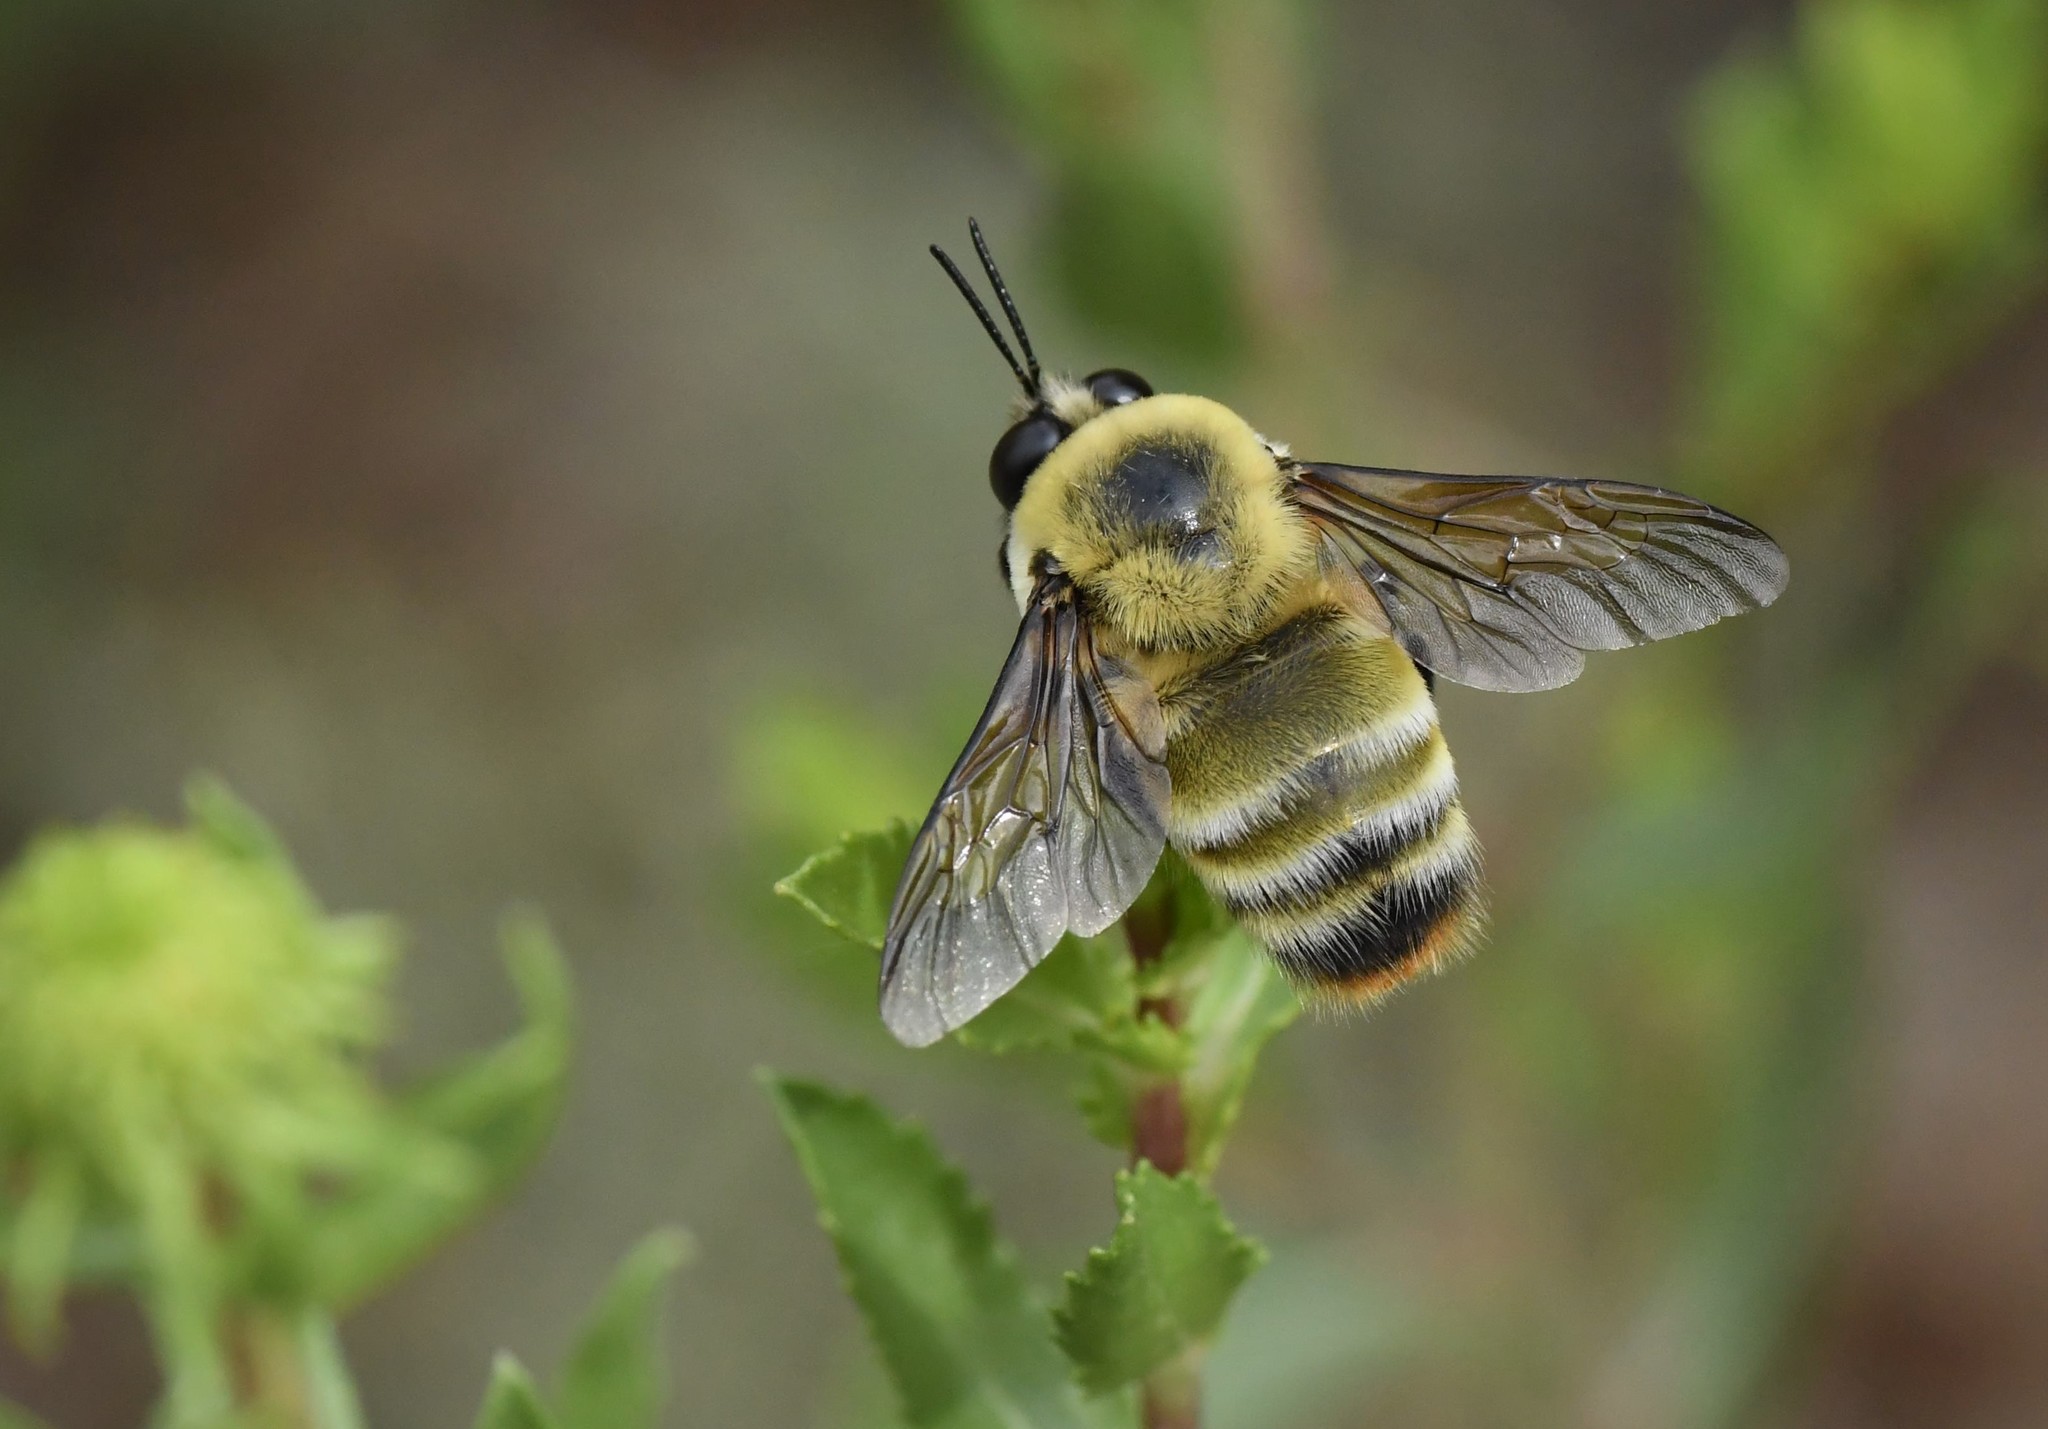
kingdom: Animalia
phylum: Arthropoda
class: Insecta
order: Hymenoptera
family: Apidae
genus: Bombus
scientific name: Bombus nevadensis
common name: Nevada bumble bee
